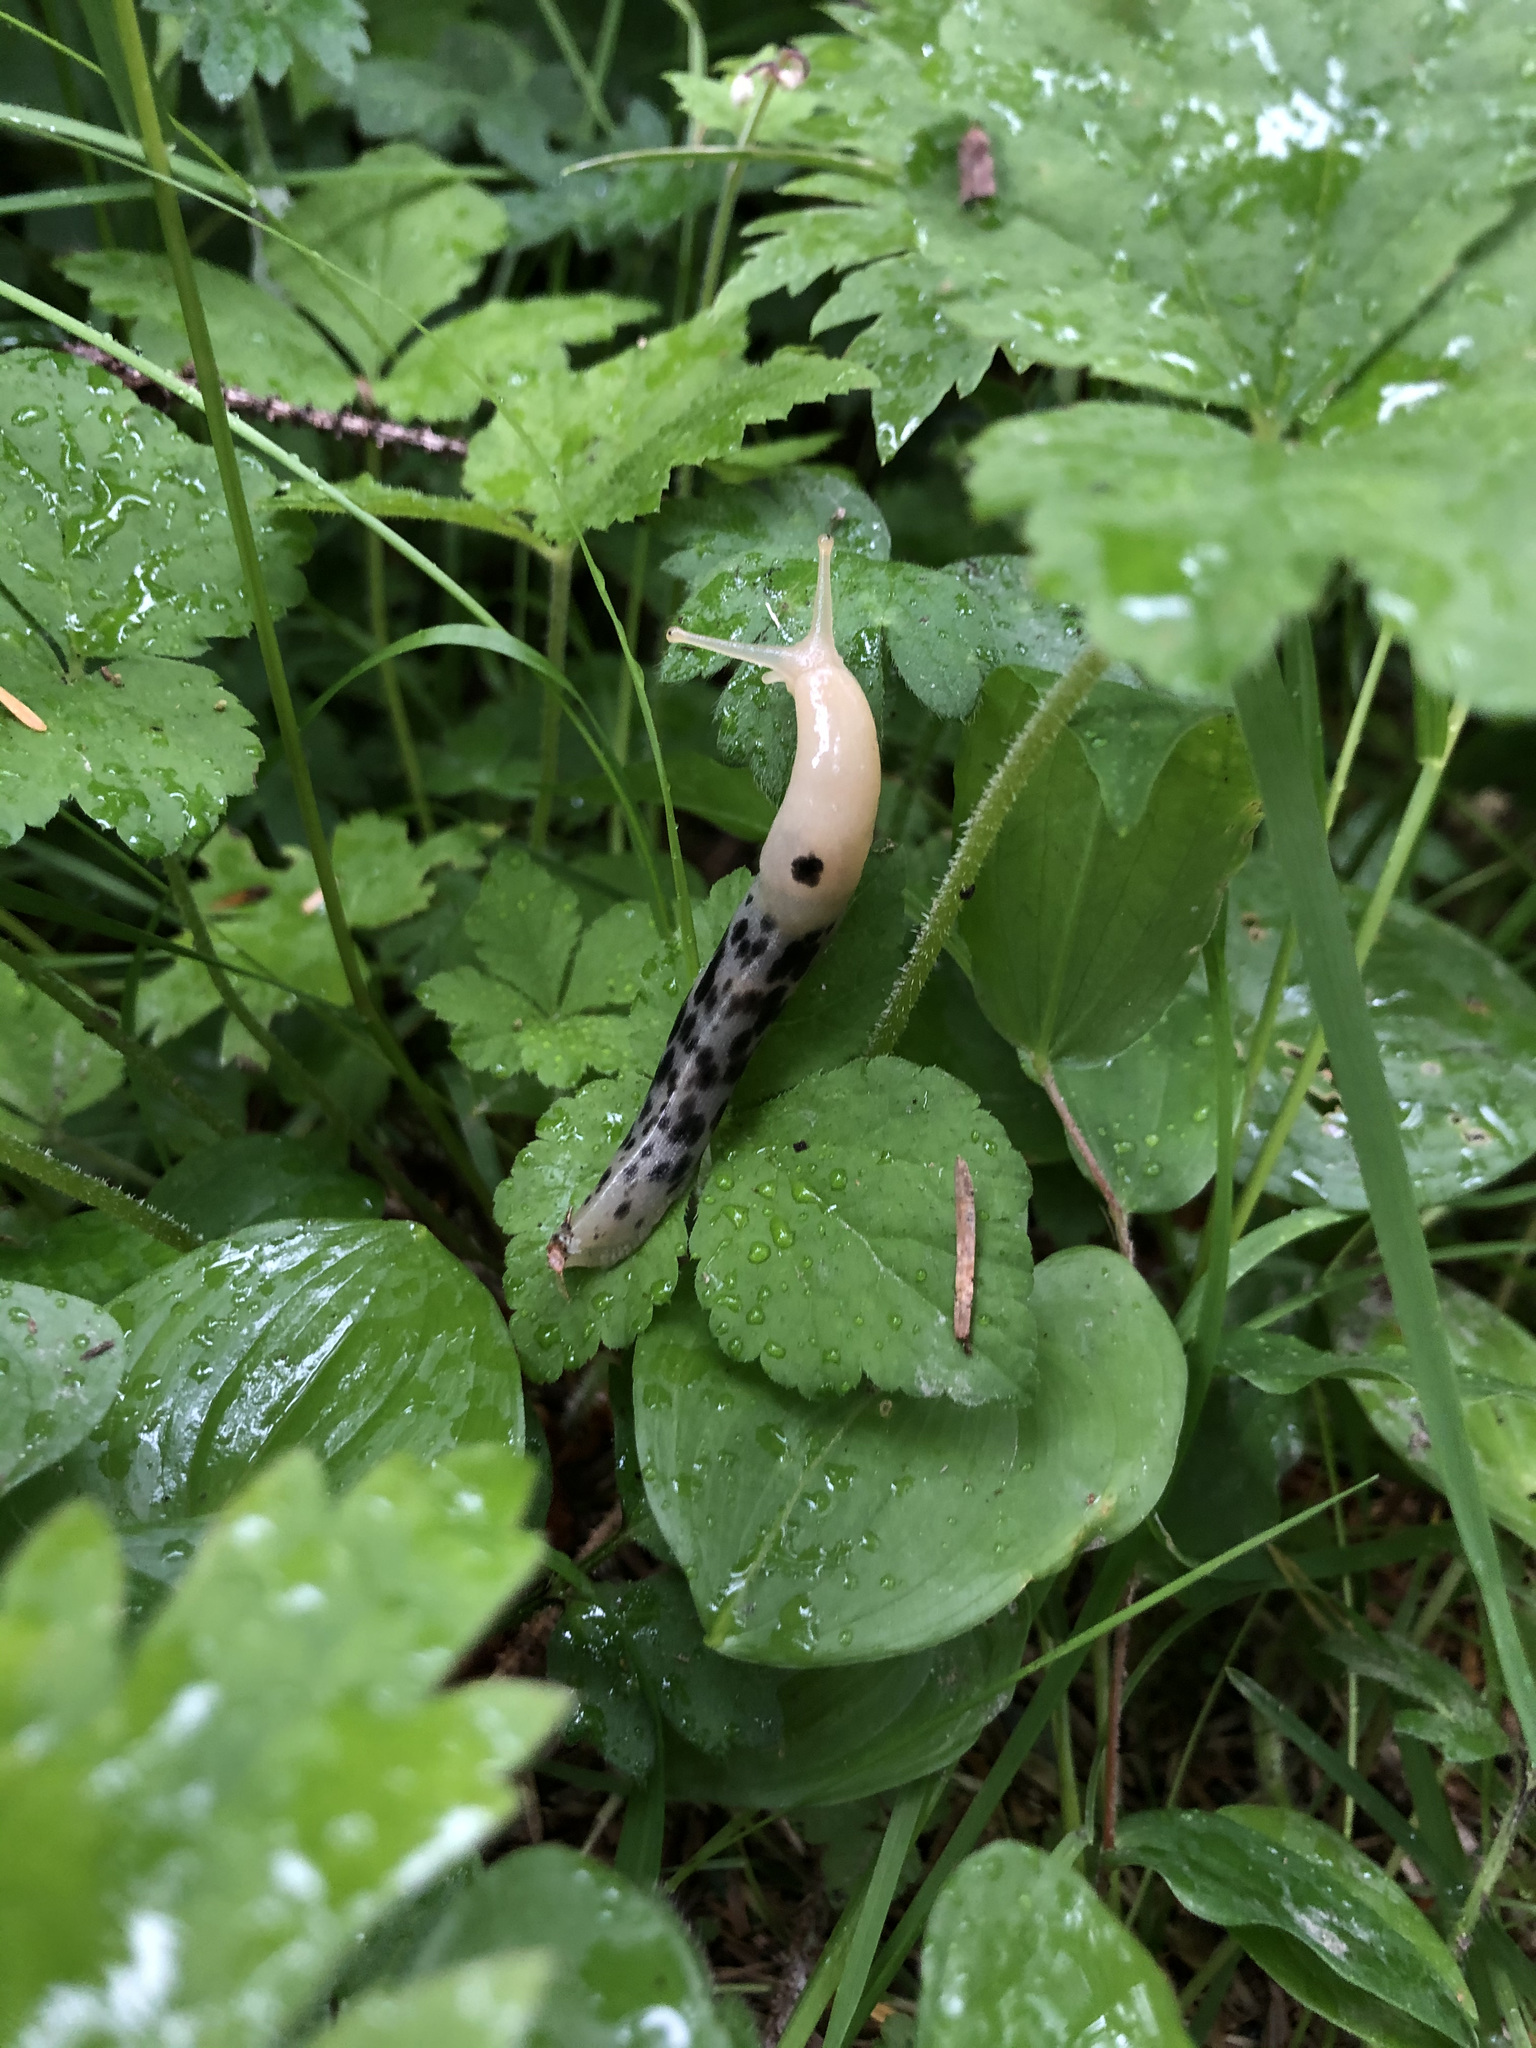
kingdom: Animalia
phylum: Mollusca
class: Gastropoda
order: Stylommatophora
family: Ariolimacidae
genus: Ariolimax
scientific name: Ariolimax columbianus
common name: Pacific banana slug
